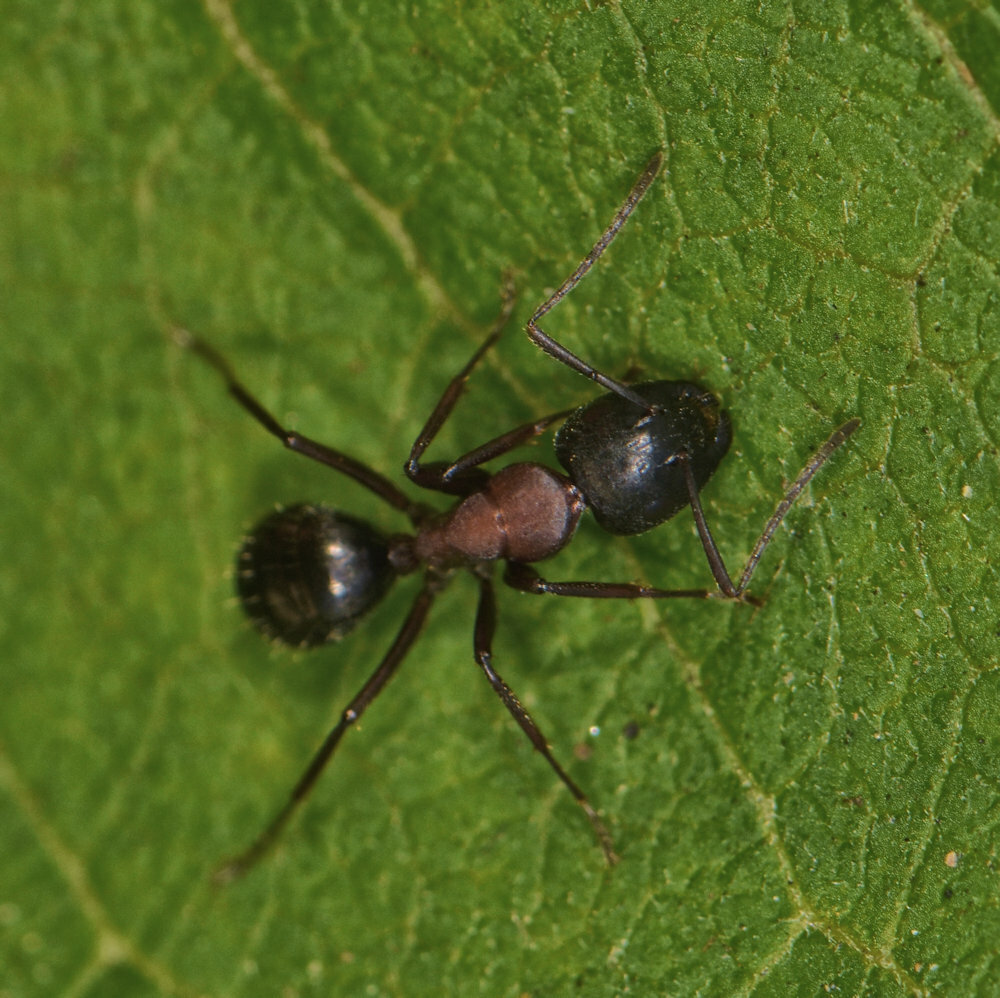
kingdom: Animalia
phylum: Arthropoda
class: Insecta
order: Hymenoptera
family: Formicidae
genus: Camponotus
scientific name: Camponotus novaeboracensis
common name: New york carpenter ant
